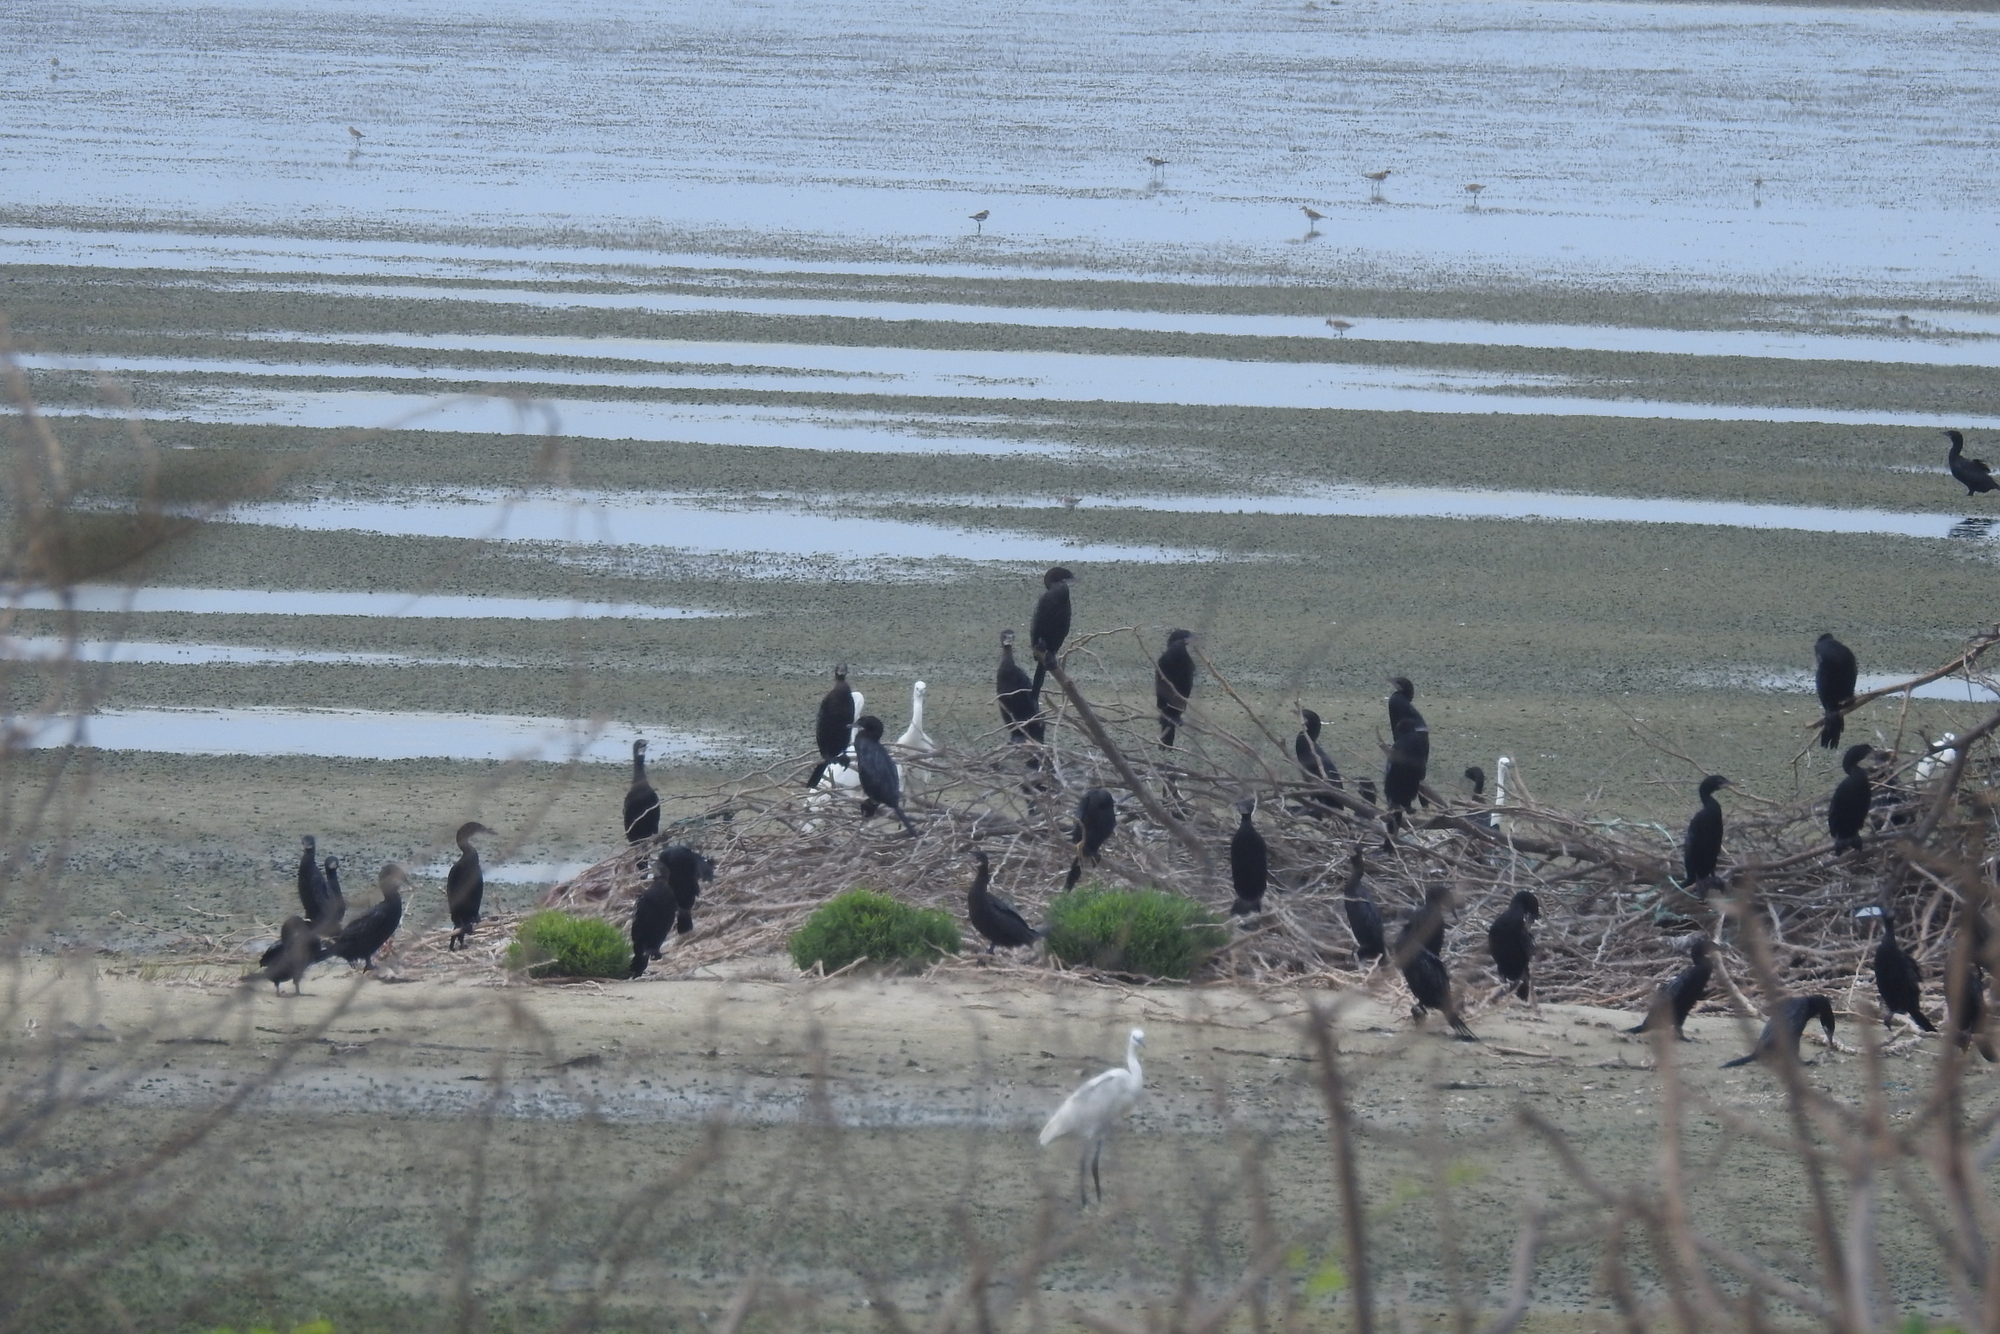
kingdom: Animalia
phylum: Chordata
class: Aves
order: Suliformes
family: Phalacrocoracidae
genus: Microcarbo
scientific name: Microcarbo niger
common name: Little cormorant
